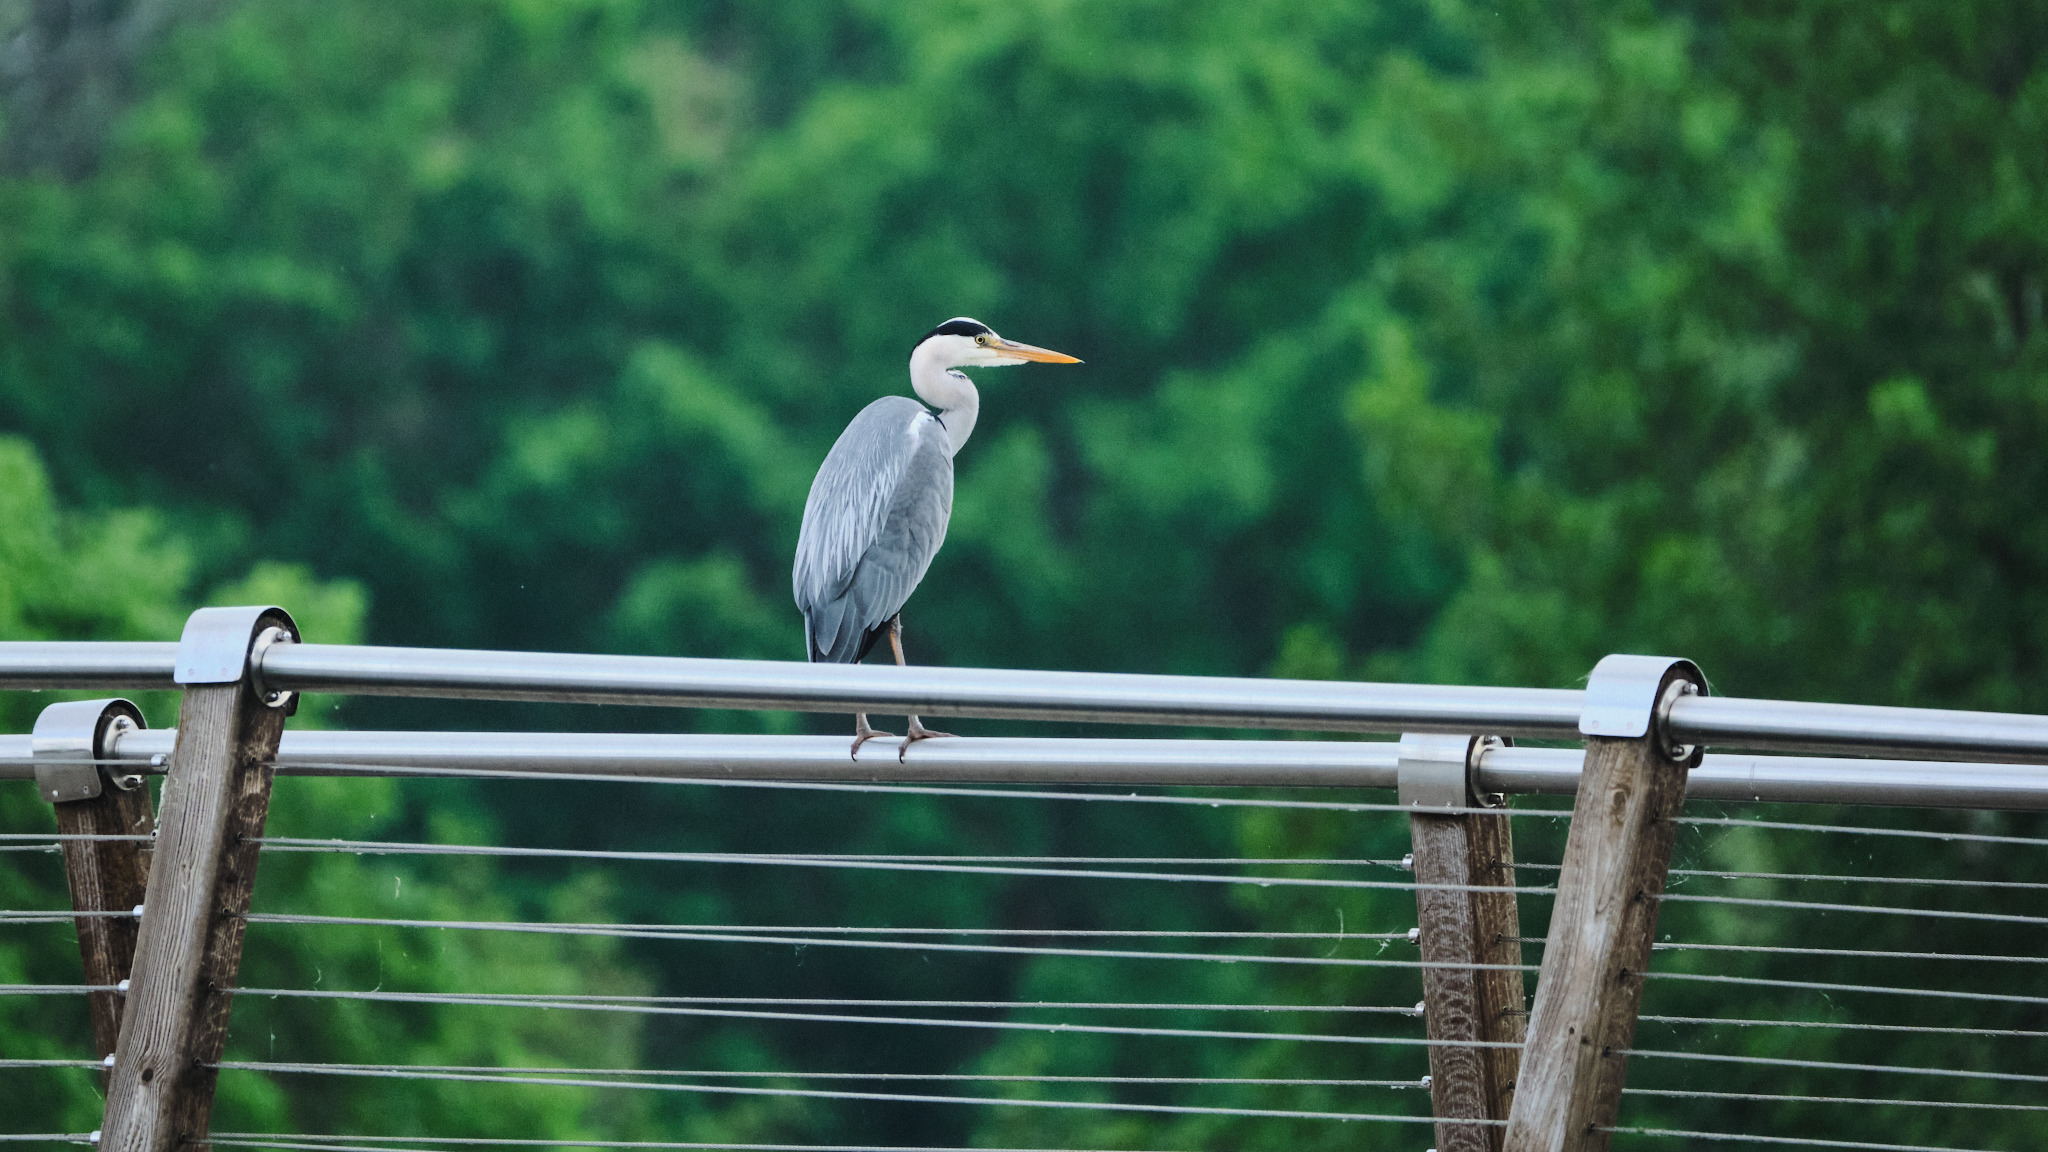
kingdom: Animalia
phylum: Chordata
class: Aves
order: Pelecaniformes
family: Ardeidae
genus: Ardea
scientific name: Ardea cinerea
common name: Grey heron
